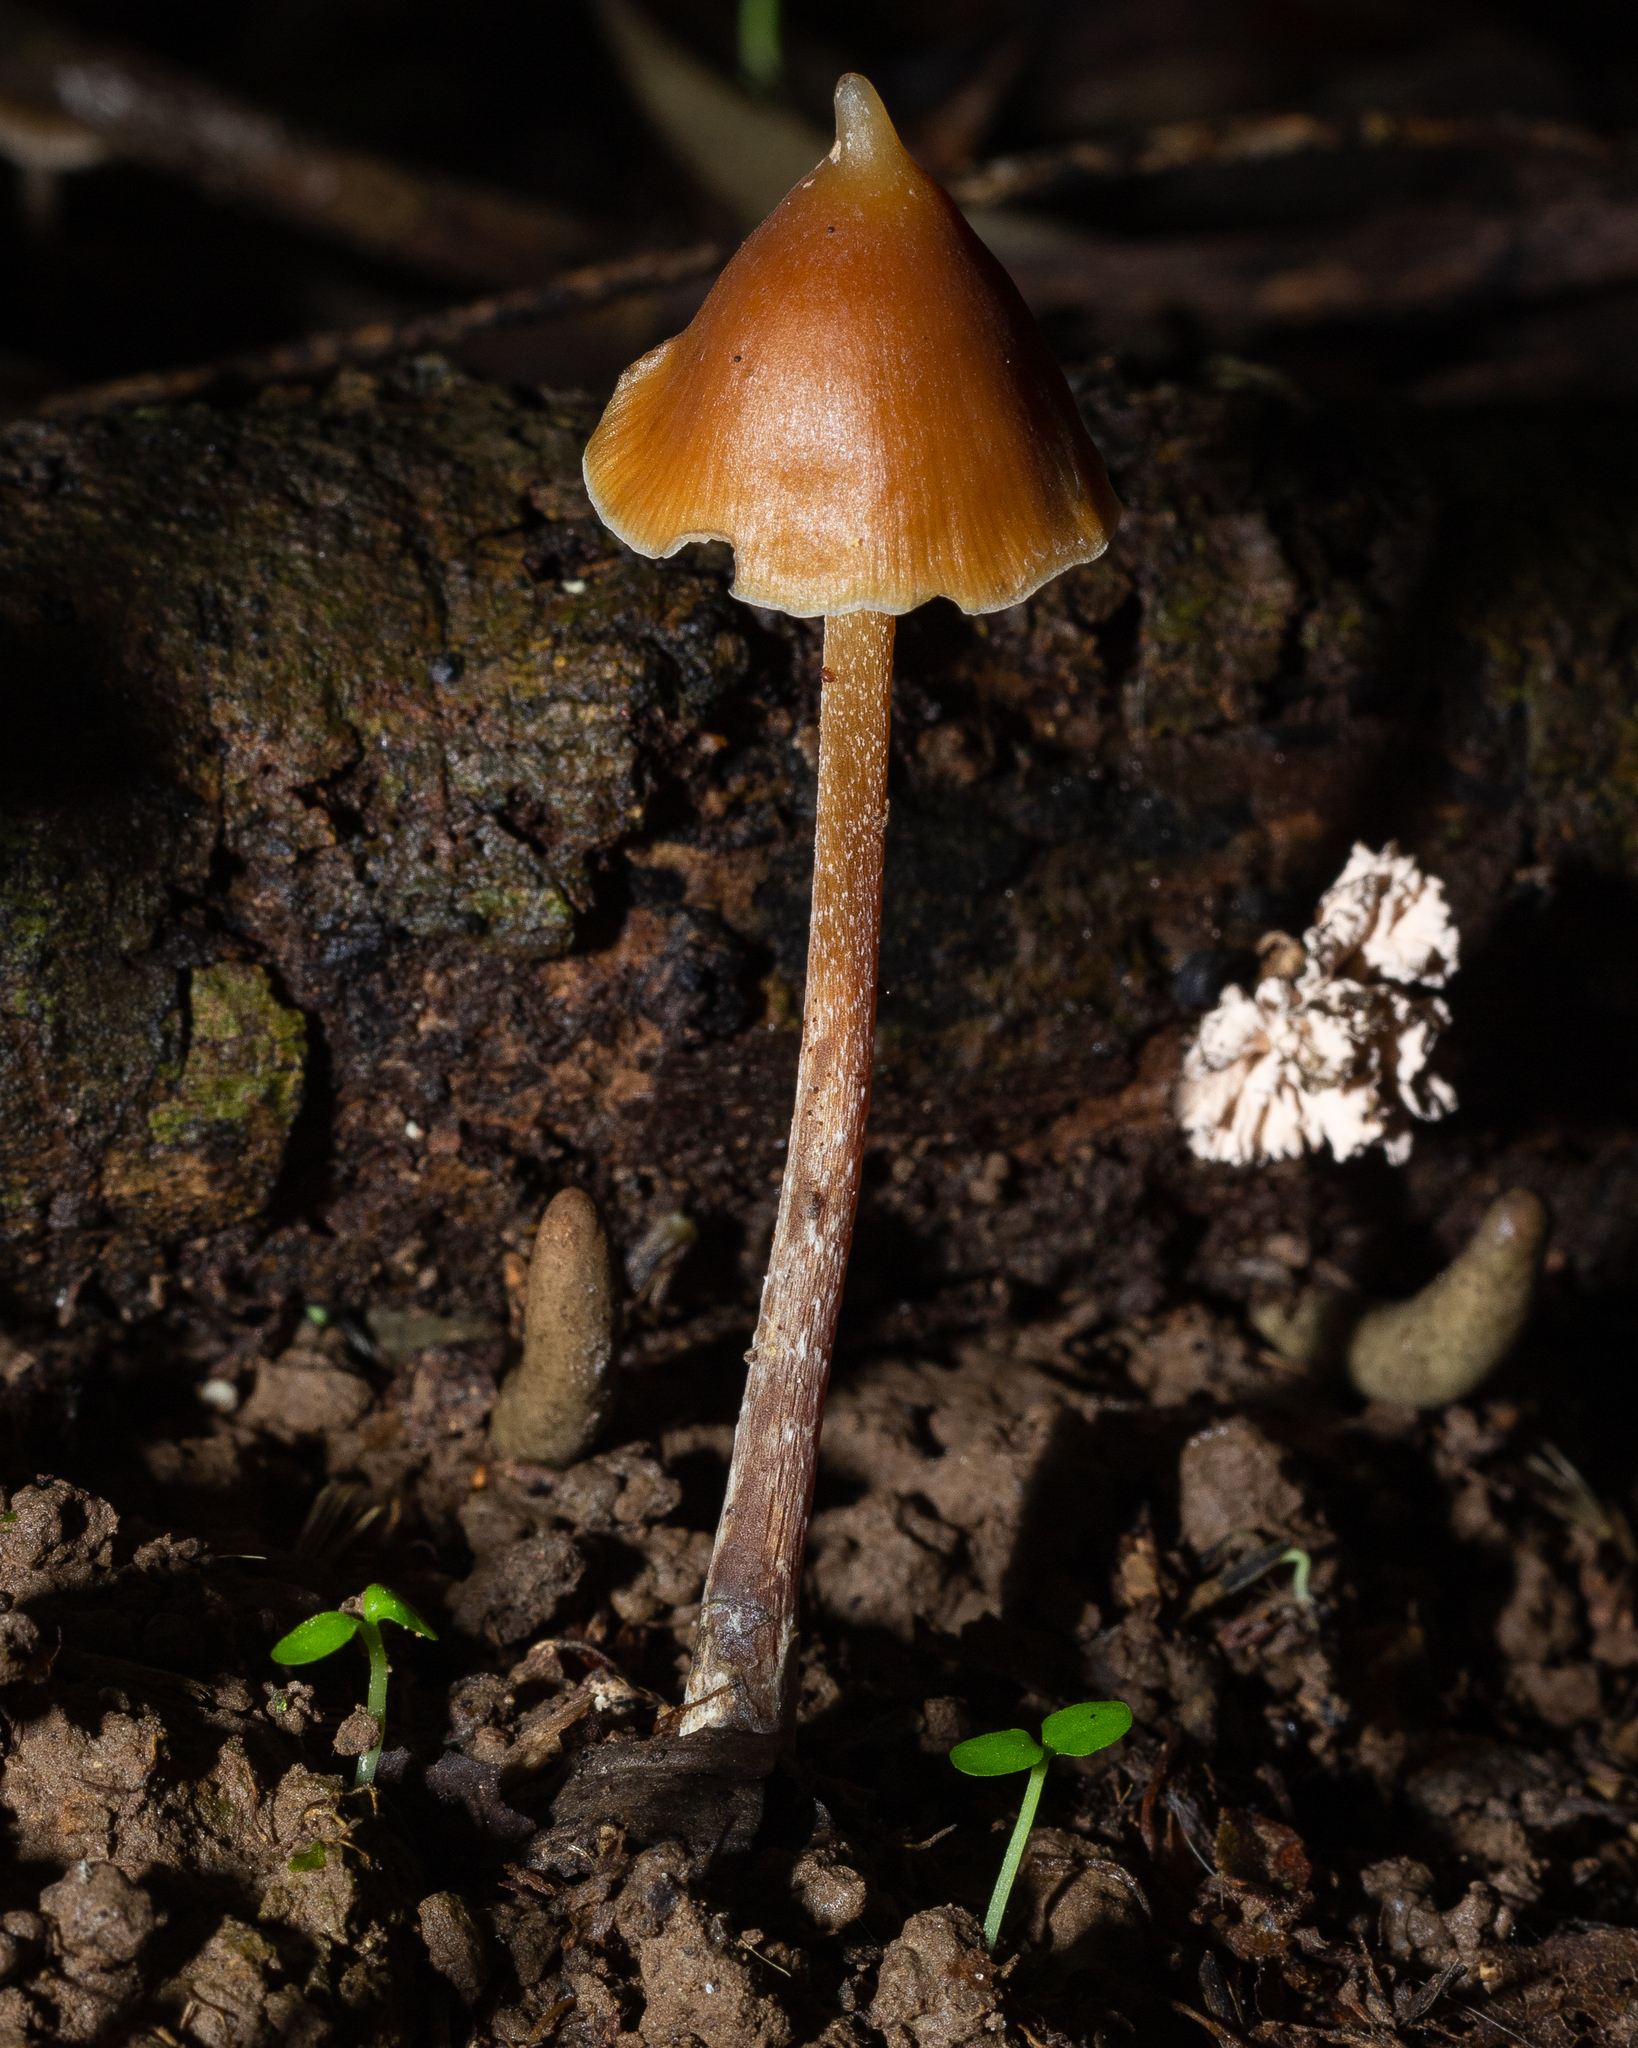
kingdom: Fungi
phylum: Basidiomycota
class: Agaricomycetes
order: Agaricales
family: Hymenogastraceae
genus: Psilocybe
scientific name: Psilocybe hoogshagenii
